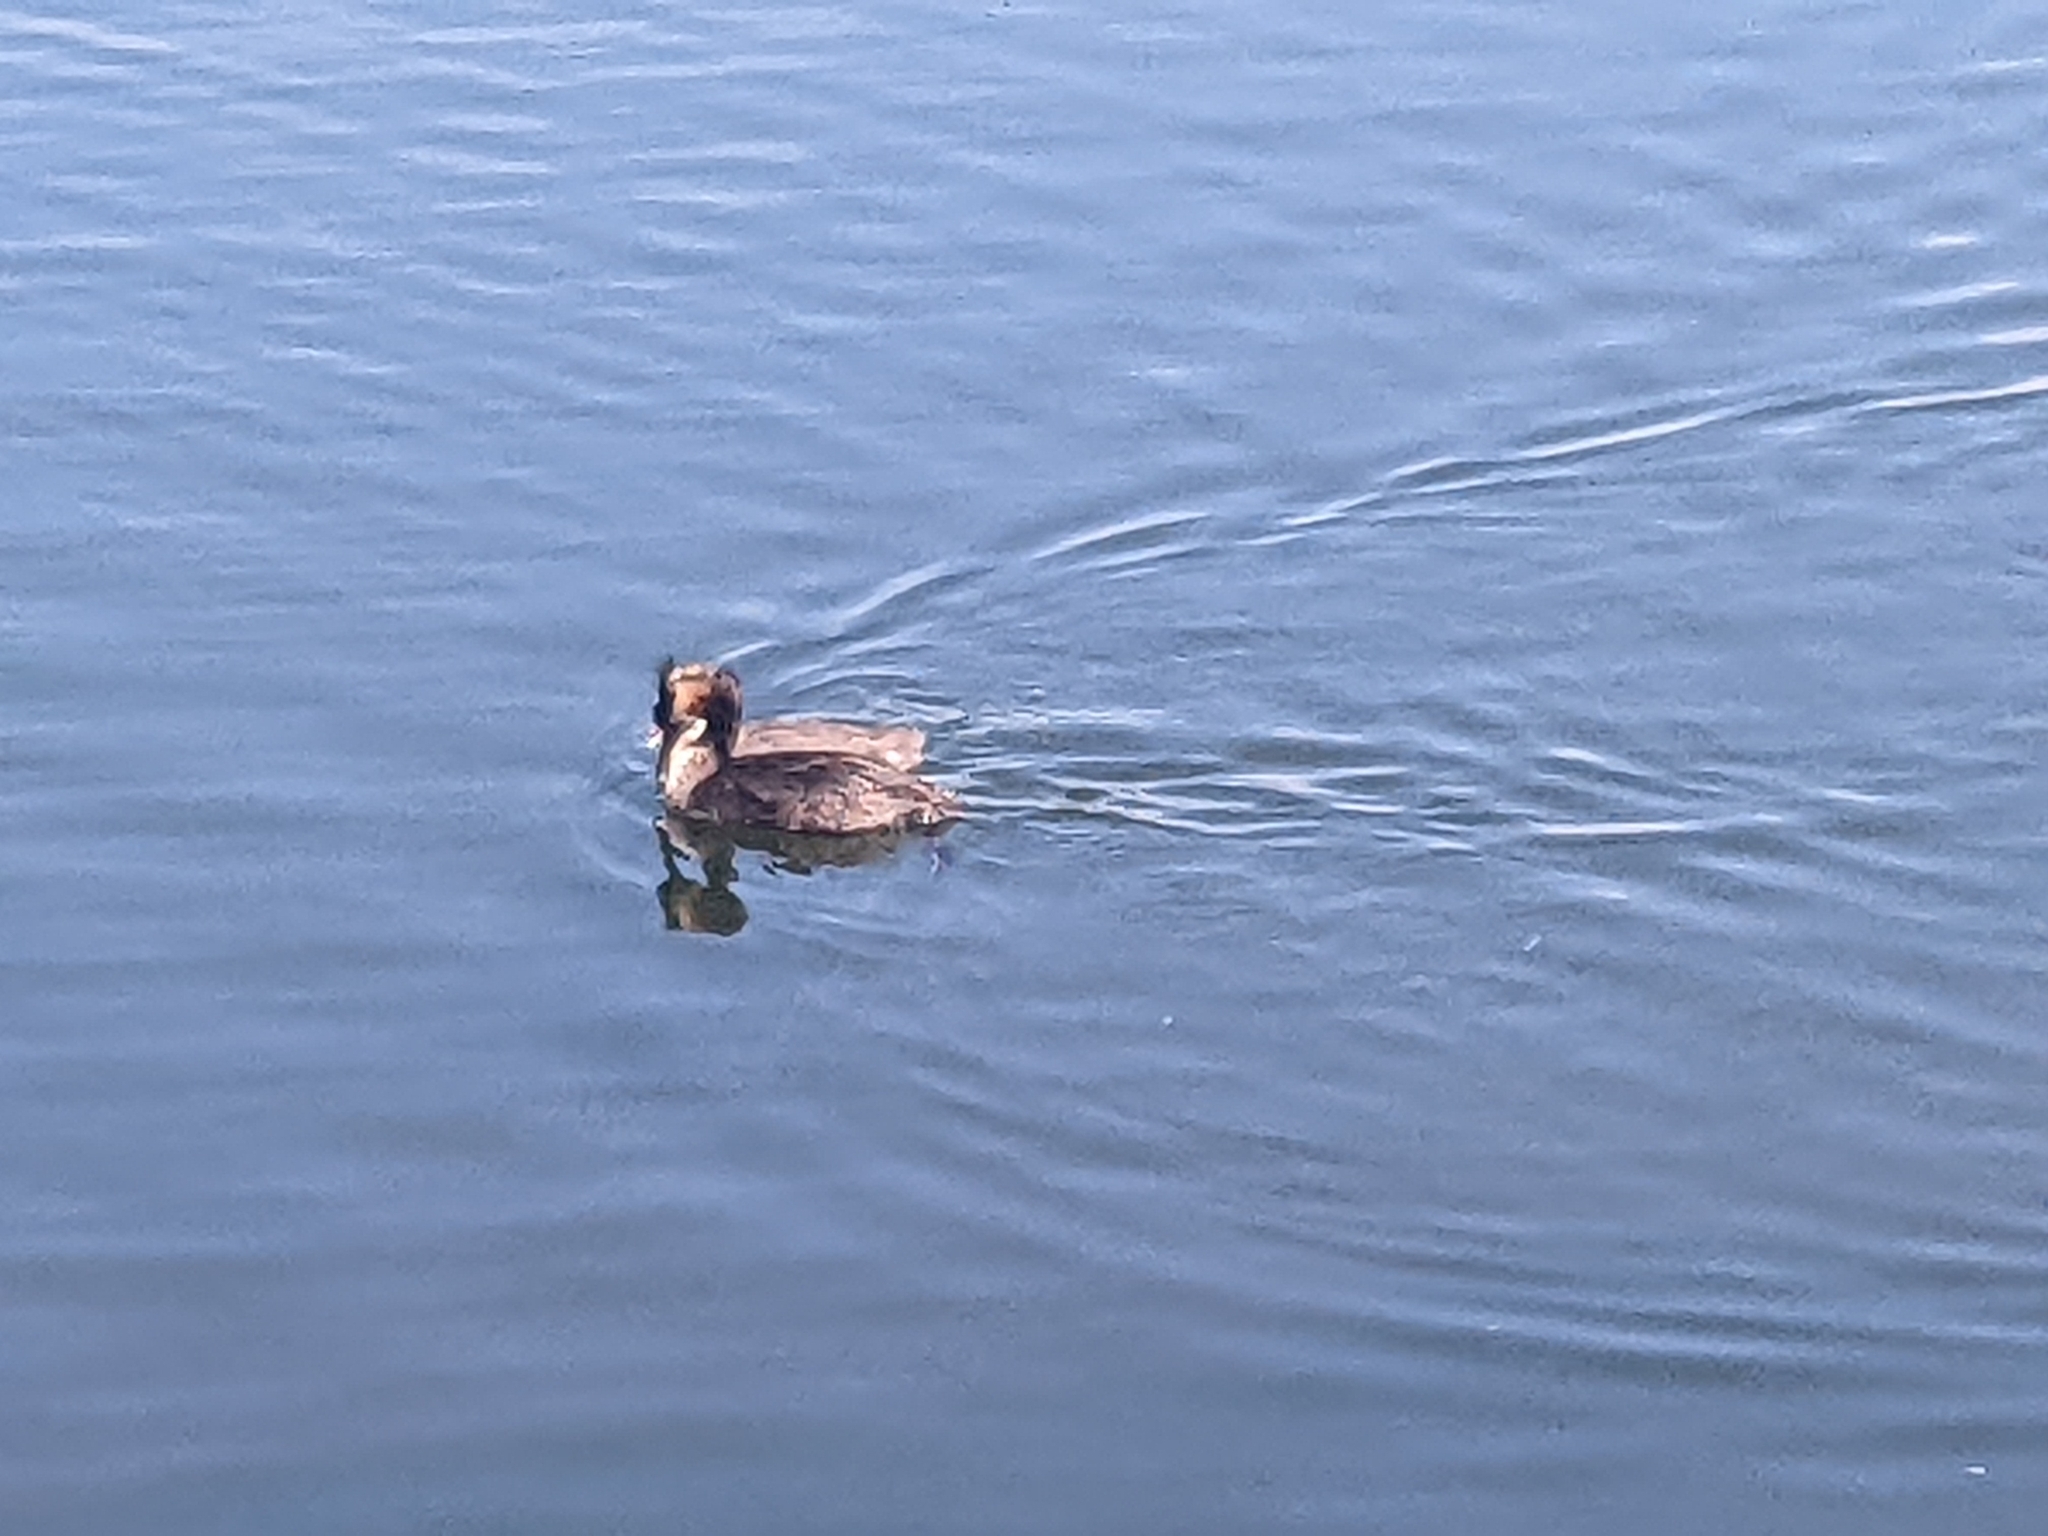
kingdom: Animalia
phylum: Chordata
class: Aves
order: Podicipediformes
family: Podicipedidae
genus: Podiceps
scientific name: Podiceps cristatus
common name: Great crested grebe
